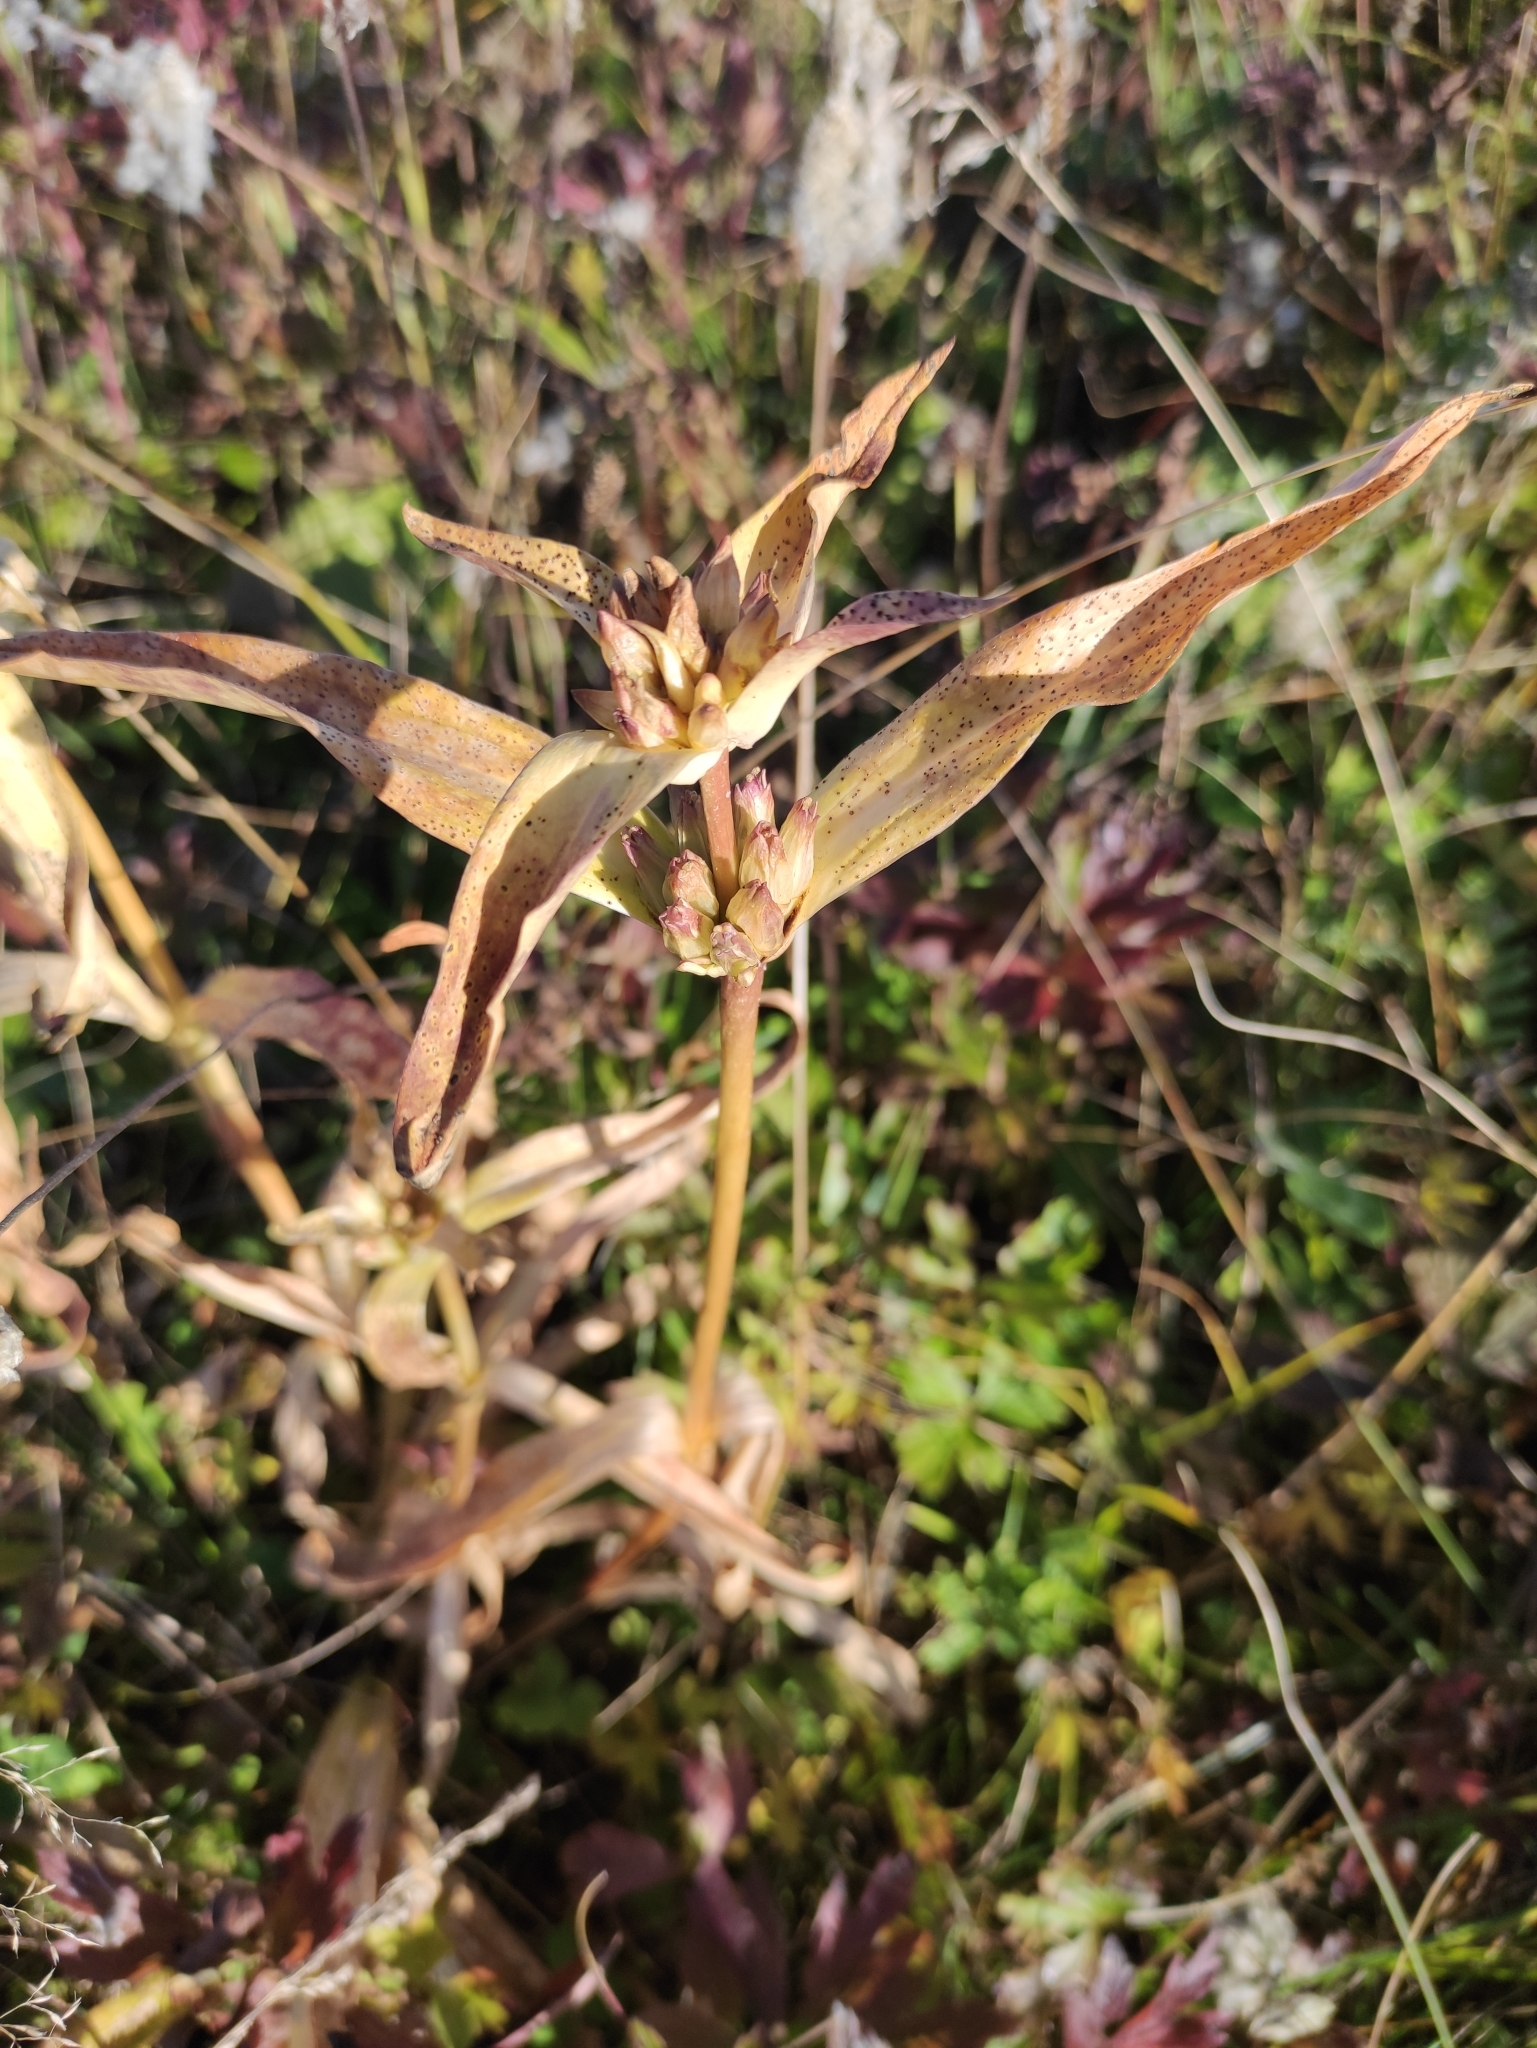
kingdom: Plantae
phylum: Tracheophyta
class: Magnoliopsida
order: Gentianales
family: Gentianaceae
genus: Gentiana
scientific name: Gentiana macrophylla
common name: Large-leaf gentian
